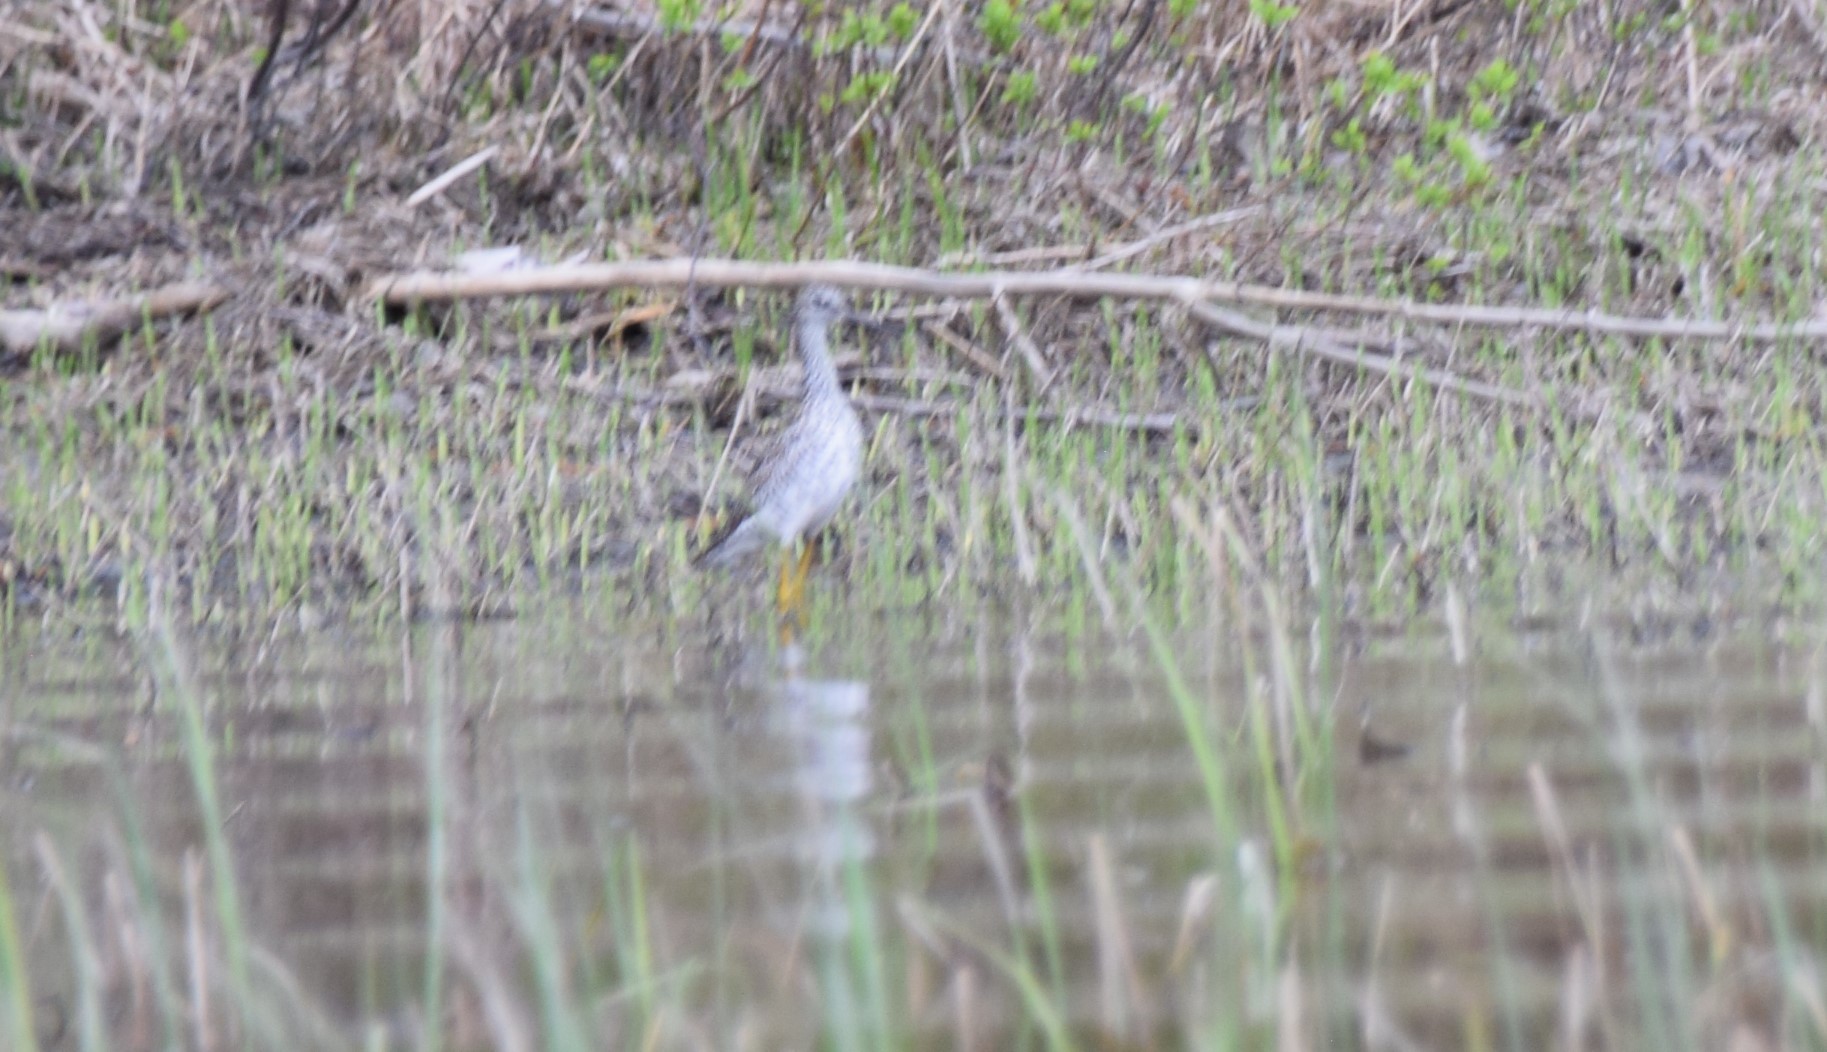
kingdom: Animalia
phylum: Chordata
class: Aves
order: Charadriiformes
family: Scolopacidae
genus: Tringa
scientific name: Tringa melanoleuca
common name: Greater yellowlegs
